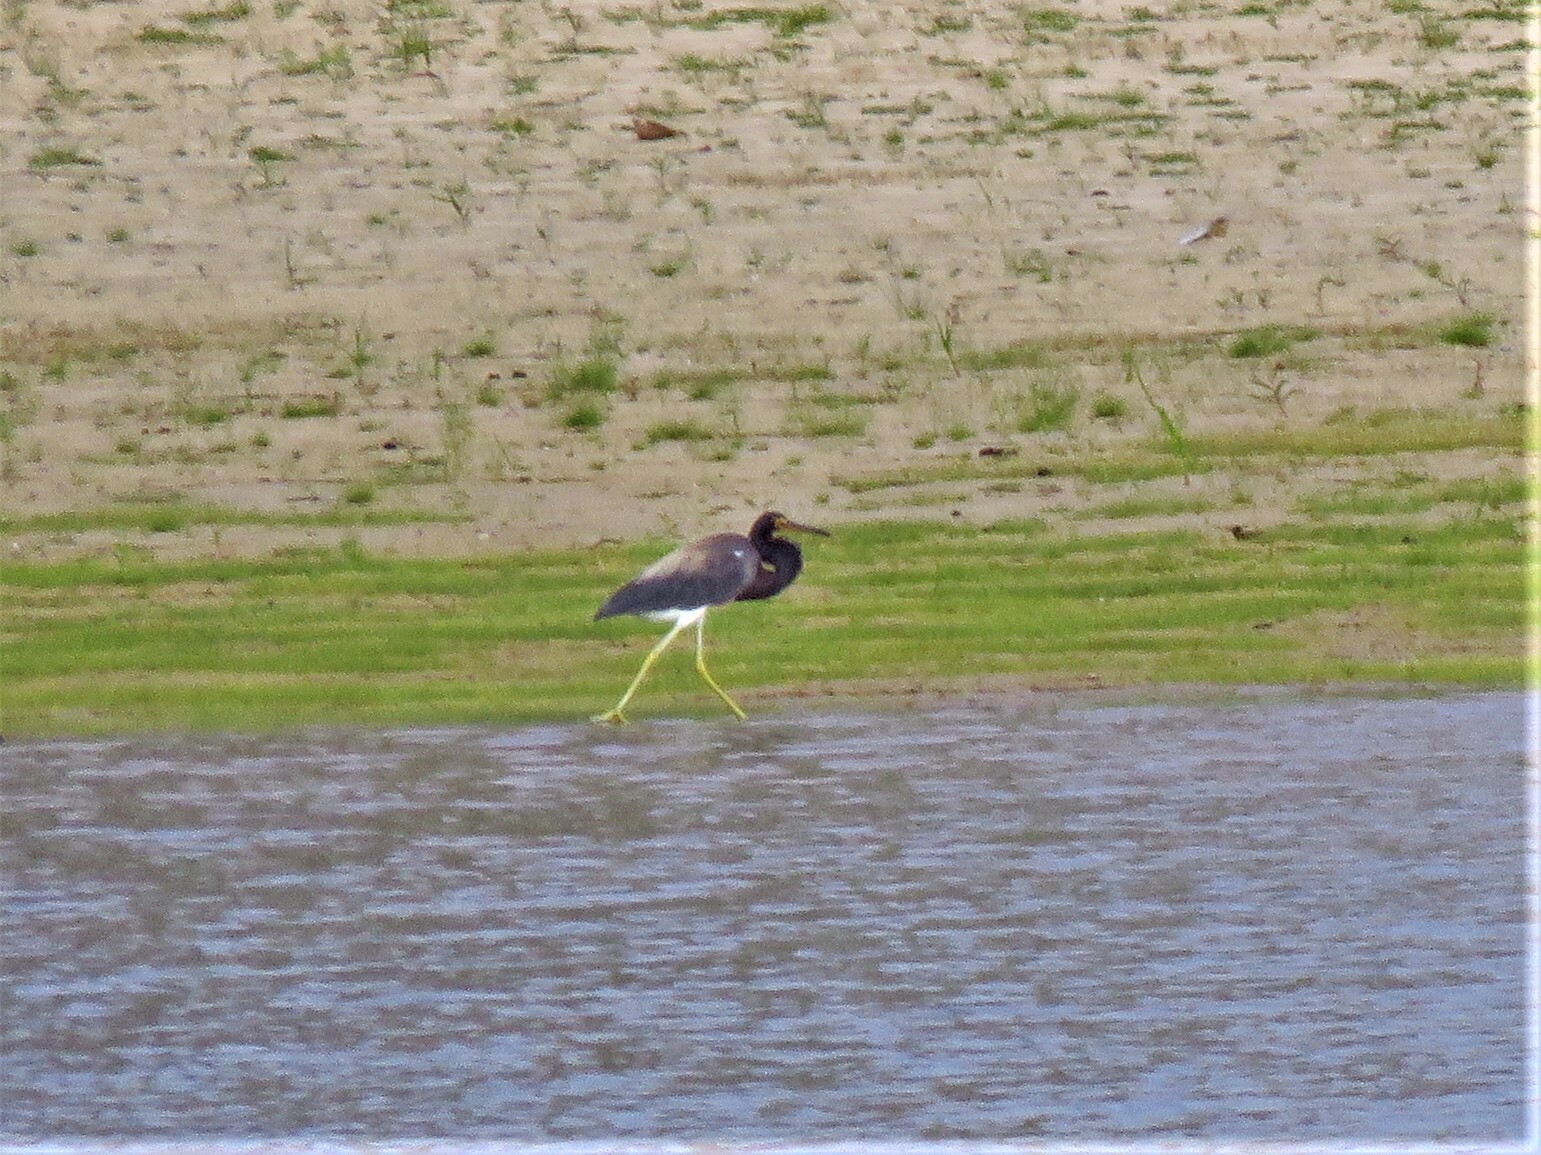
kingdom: Animalia
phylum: Chordata
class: Aves
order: Pelecaniformes
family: Ardeidae
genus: Egretta
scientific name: Egretta tricolor
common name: Tricolored heron
